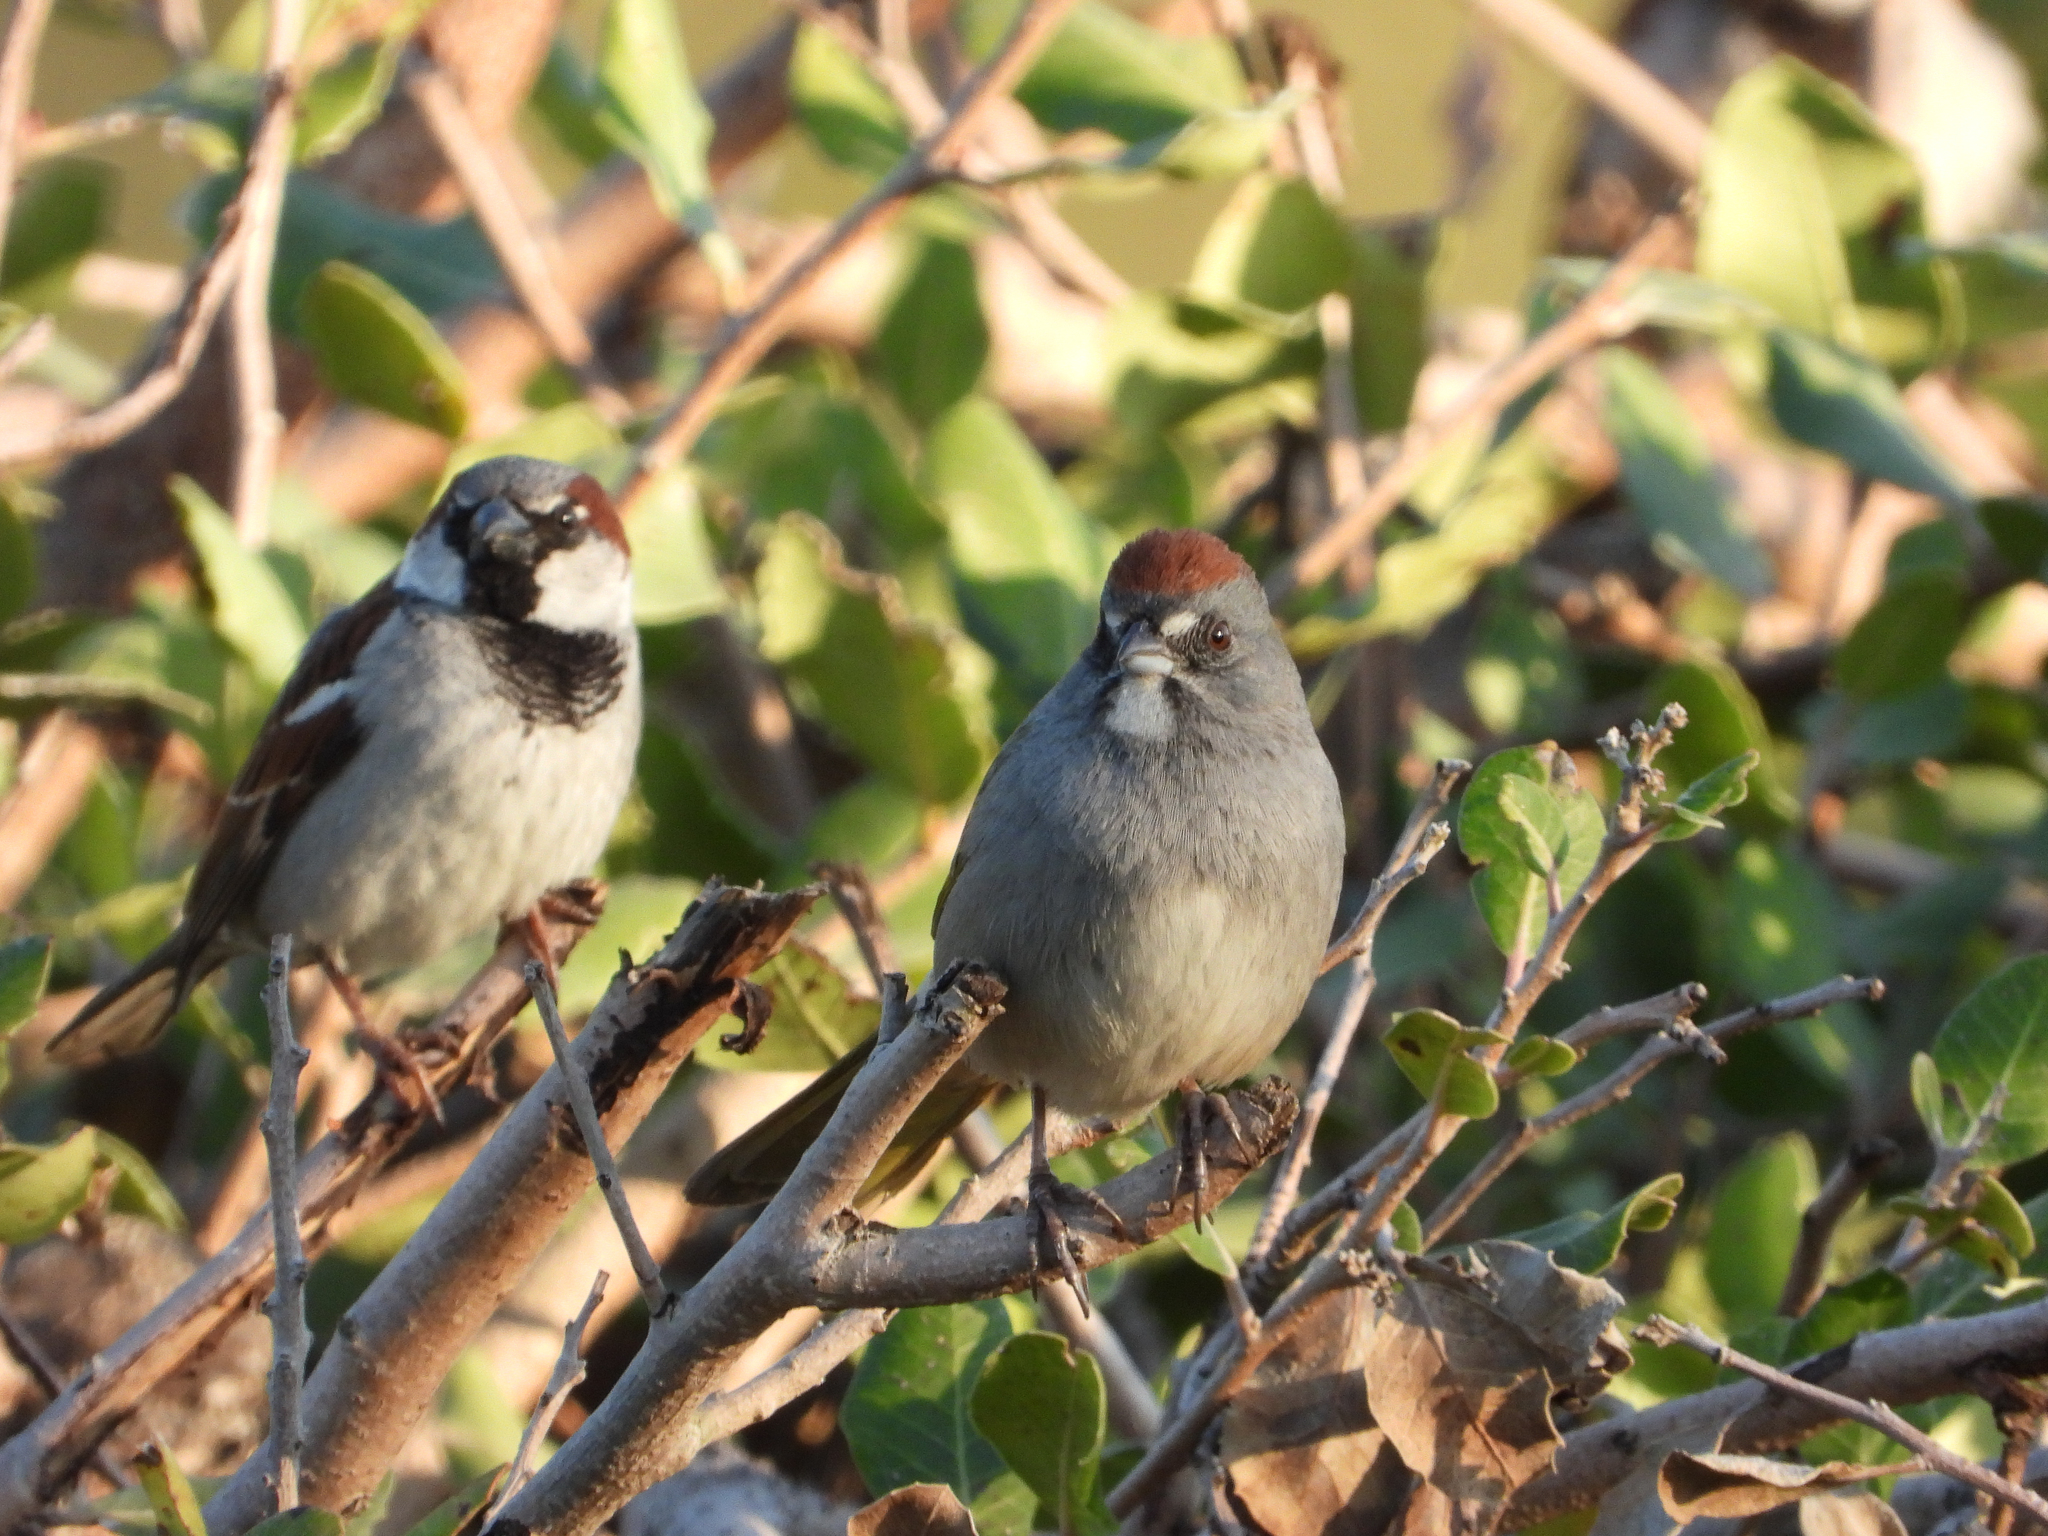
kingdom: Animalia
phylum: Chordata
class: Aves
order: Passeriformes
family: Passerellidae
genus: Pipilo
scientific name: Pipilo chlorurus
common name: Green-tailed towhee
